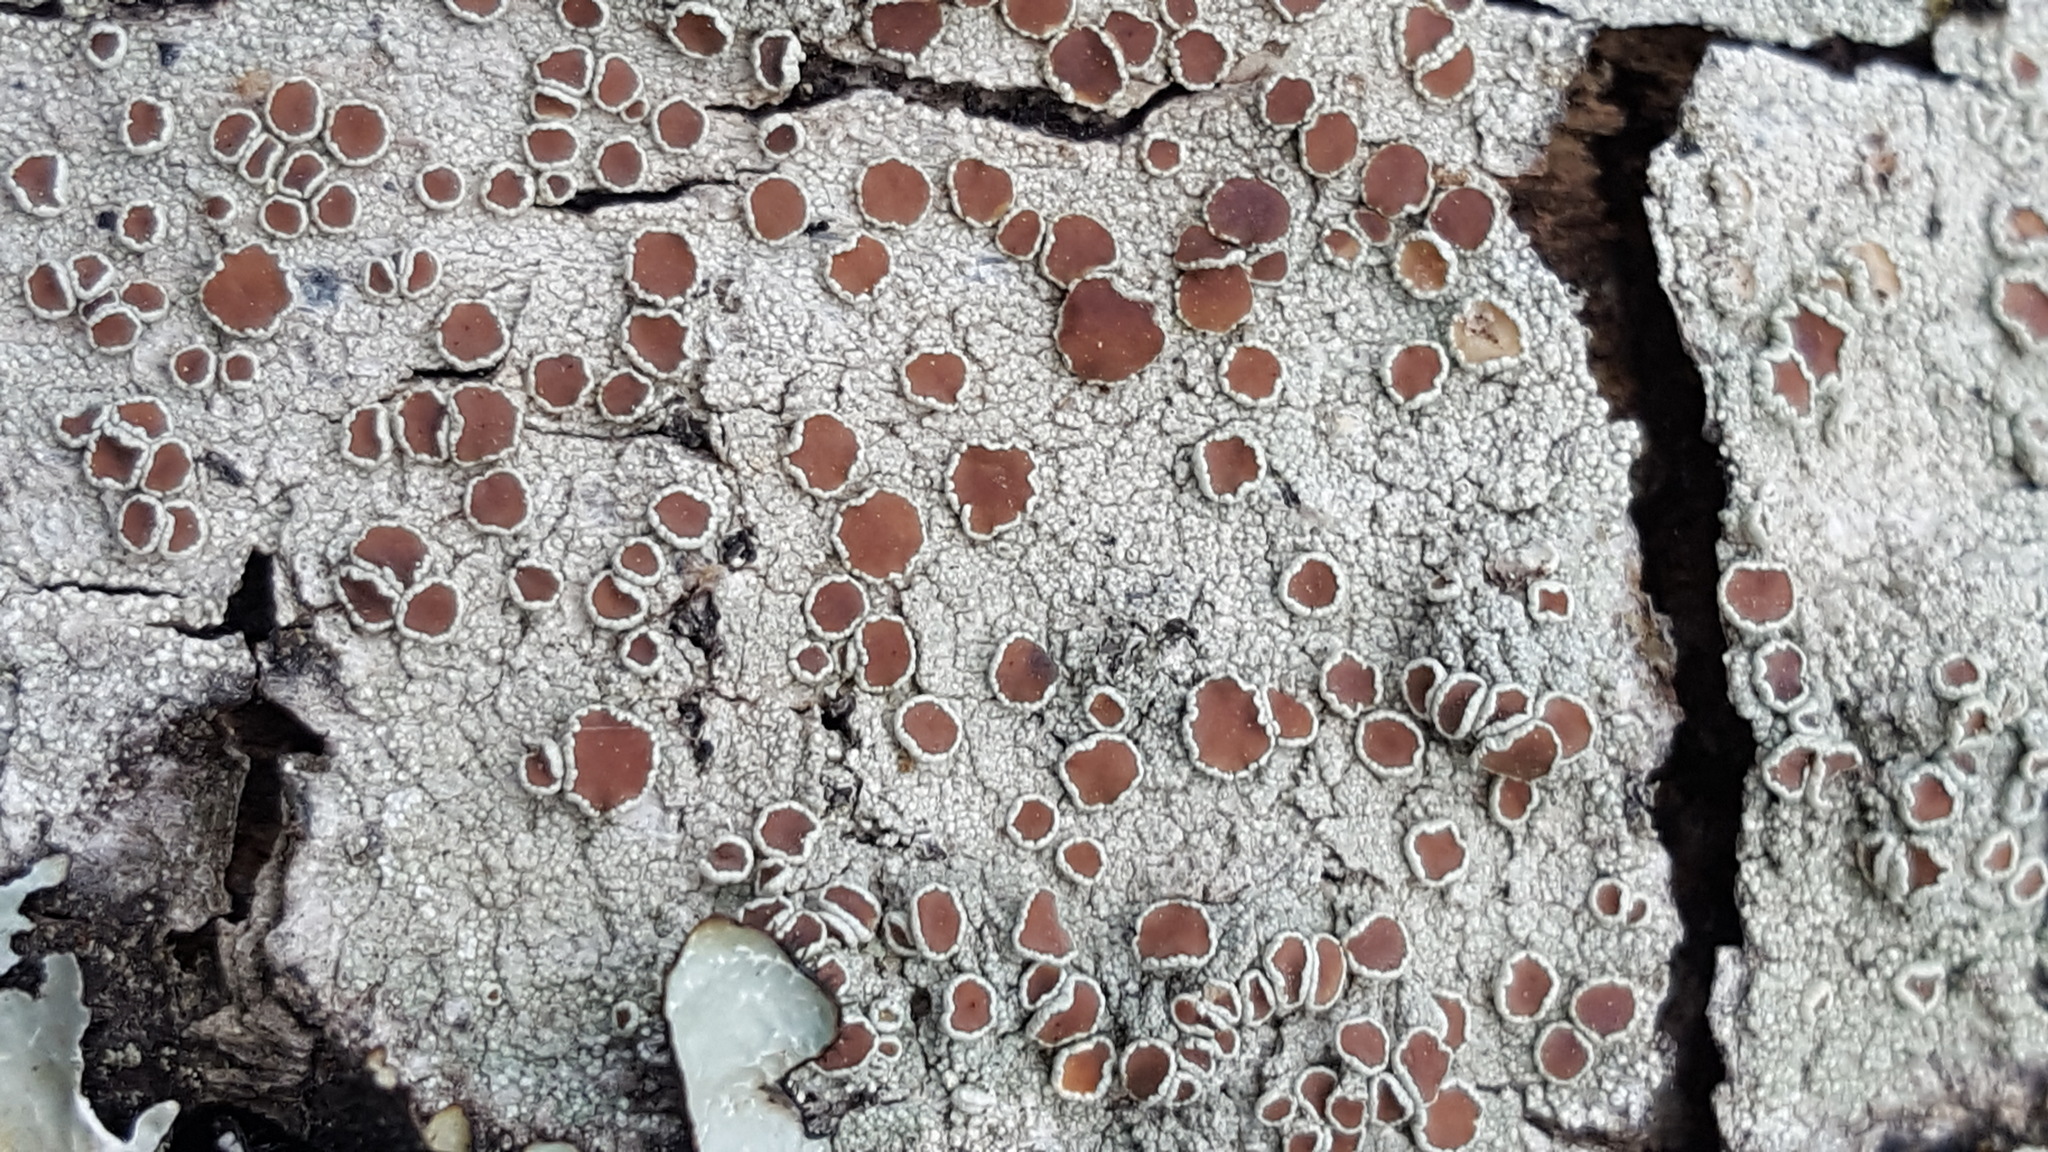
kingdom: Fungi
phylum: Ascomycota
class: Lecanoromycetes
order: Lecanorales
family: Lecanoraceae
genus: Lecanora
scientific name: Lecanora albella
